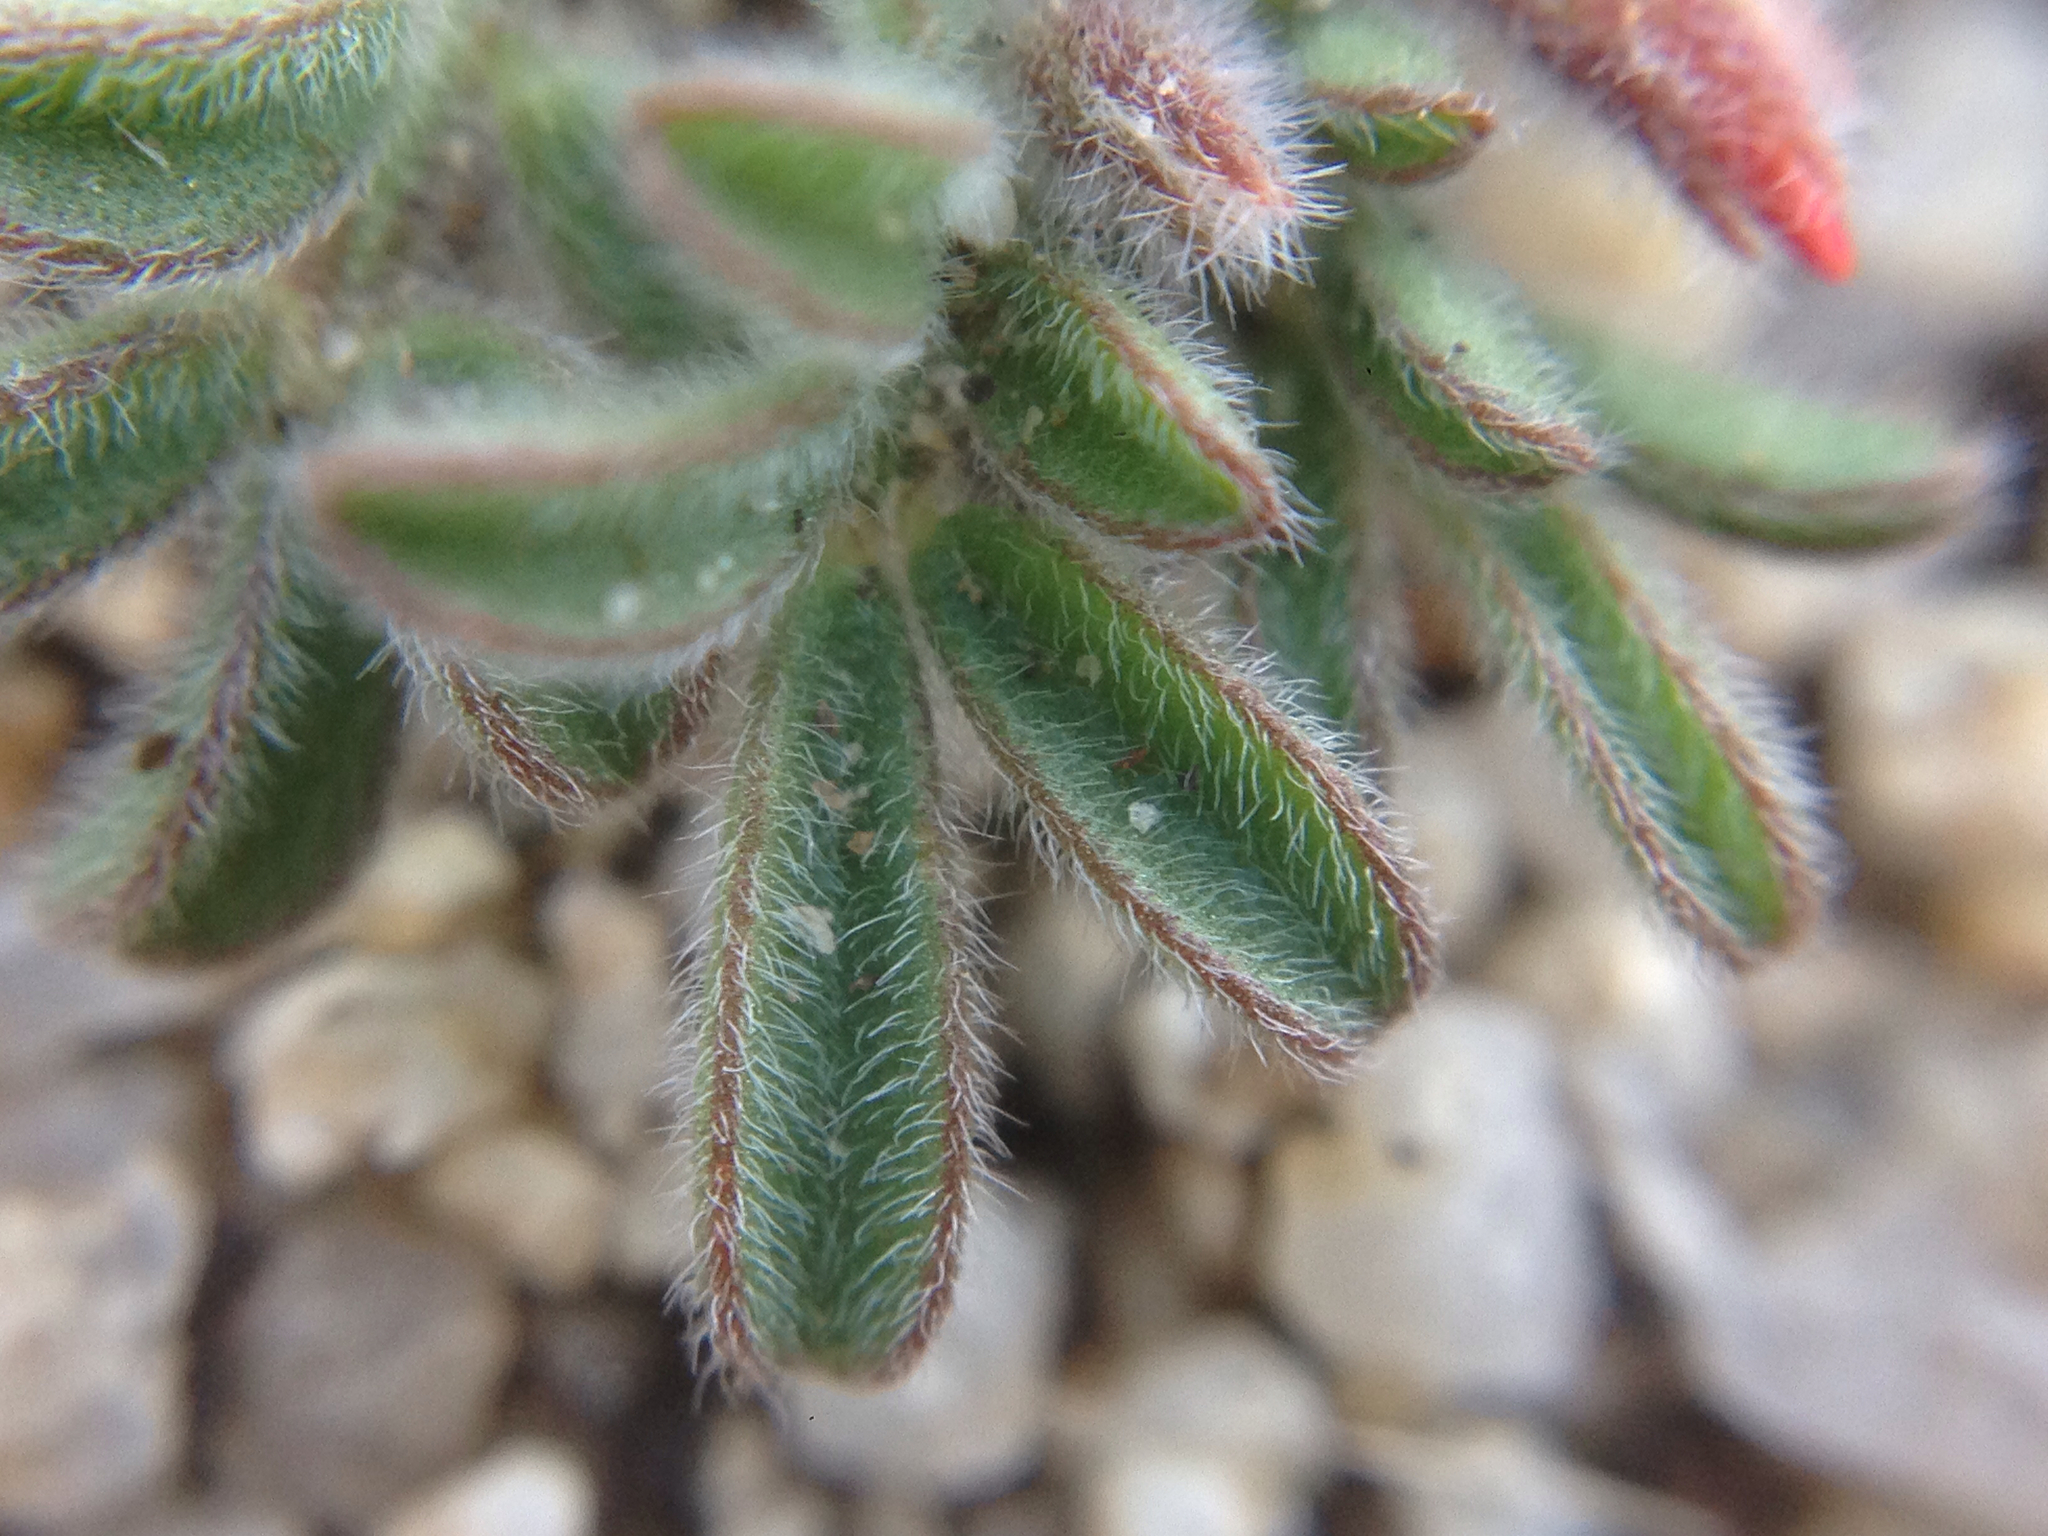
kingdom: Plantae
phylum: Tracheophyta
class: Magnoliopsida
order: Fabales
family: Fabaceae
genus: Acmispon
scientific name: Acmispon strigosus
